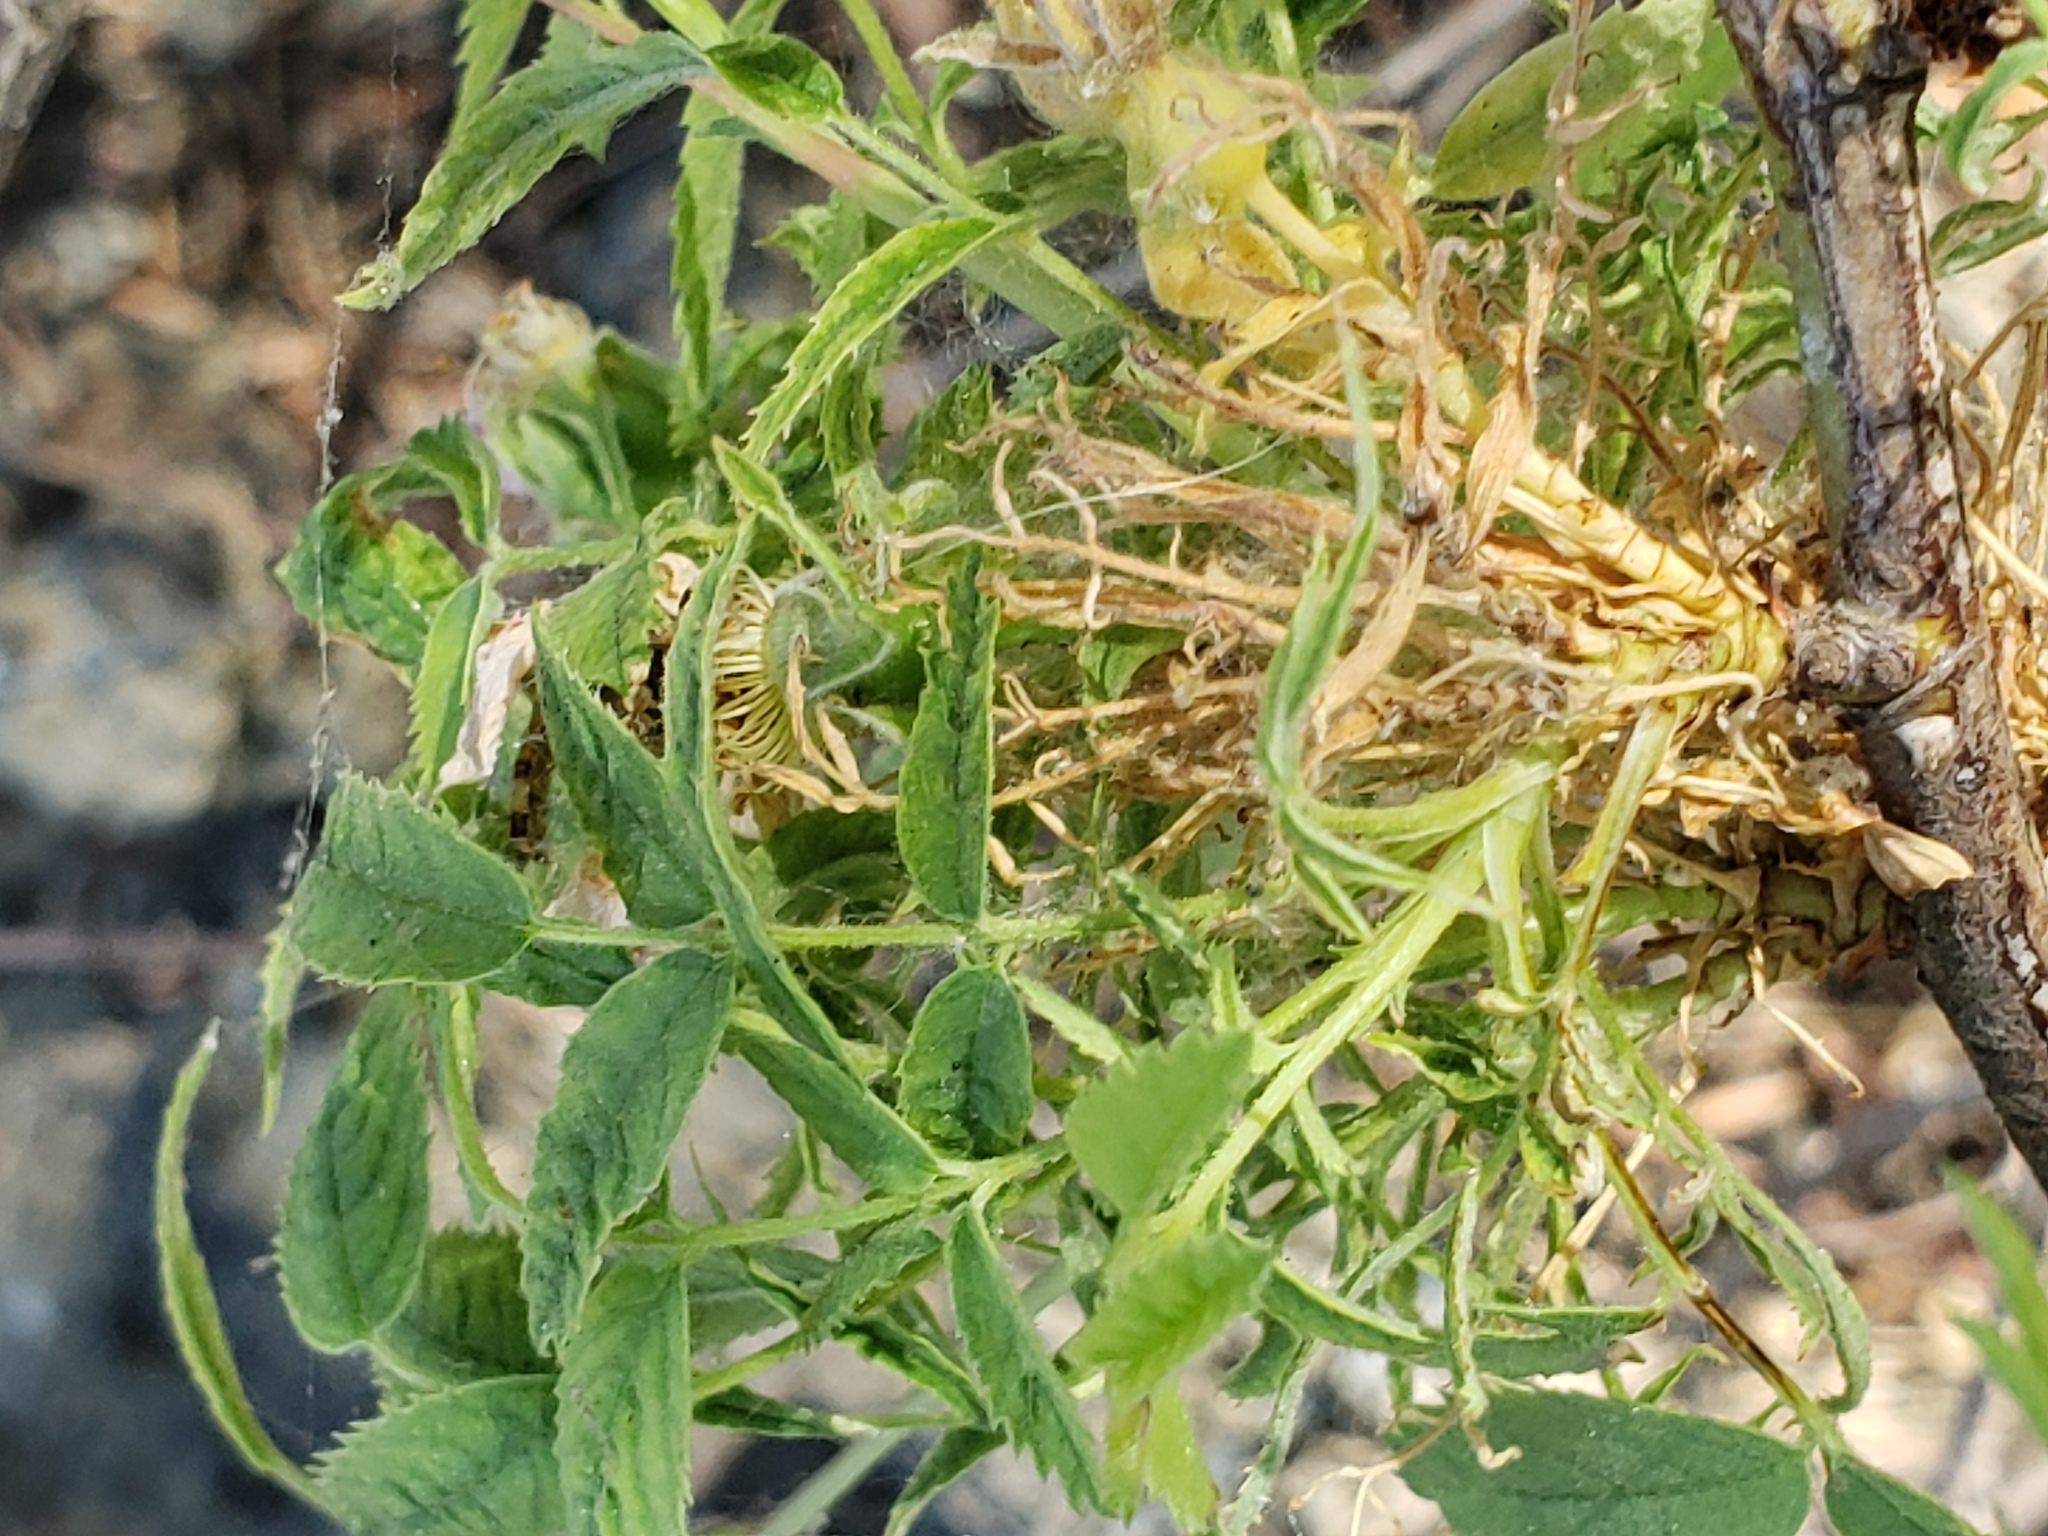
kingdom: Animalia
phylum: Arthropoda
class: Insecta
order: Hymenoptera
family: Cynipidae
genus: Diplolepis
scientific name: Diplolepis rosae
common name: Bedeguar gall
